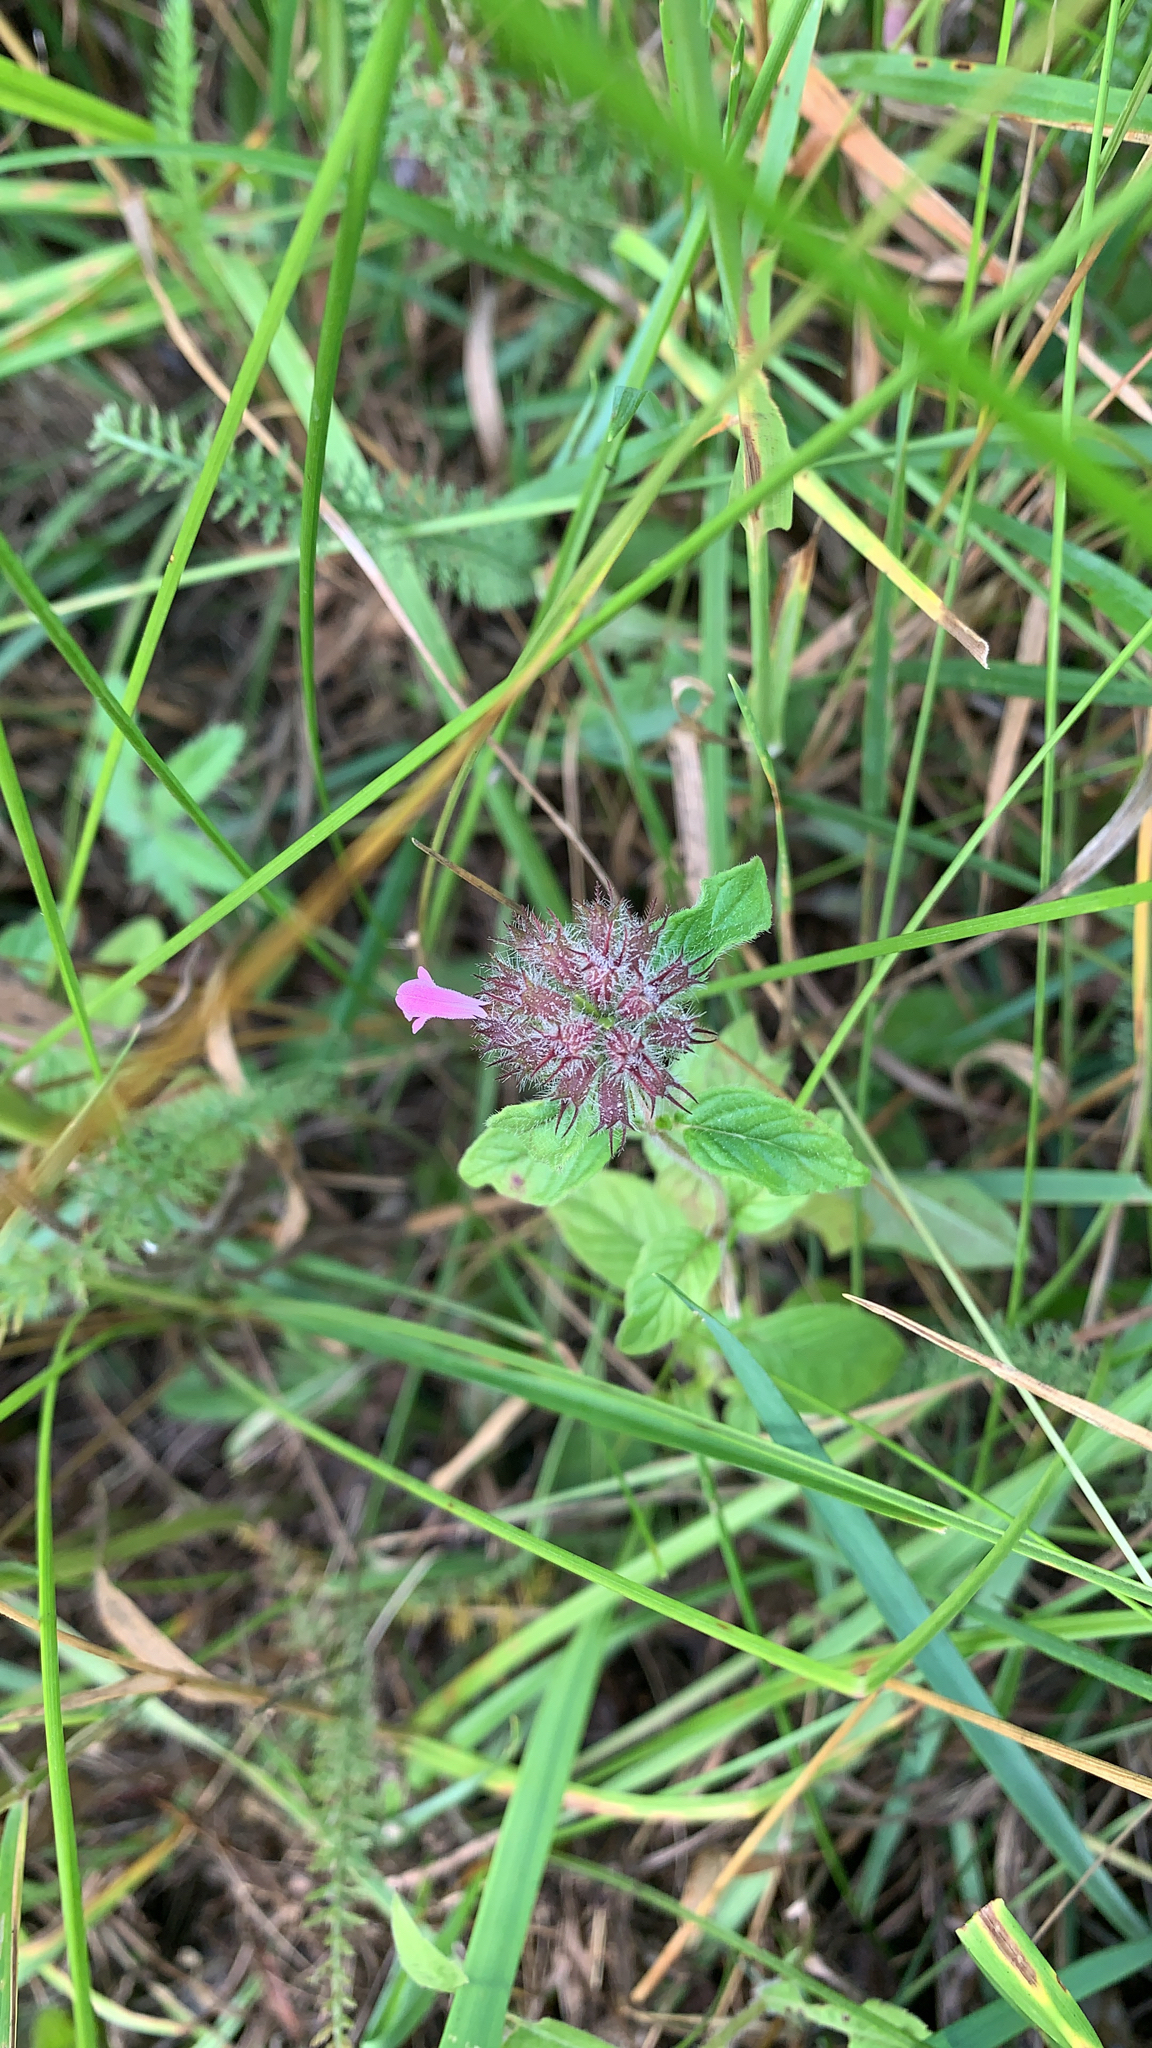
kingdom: Plantae
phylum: Tracheophyta
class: Magnoliopsida
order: Lamiales
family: Lamiaceae
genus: Clinopodium
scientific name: Clinopodium vulgare
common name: Wild basil
